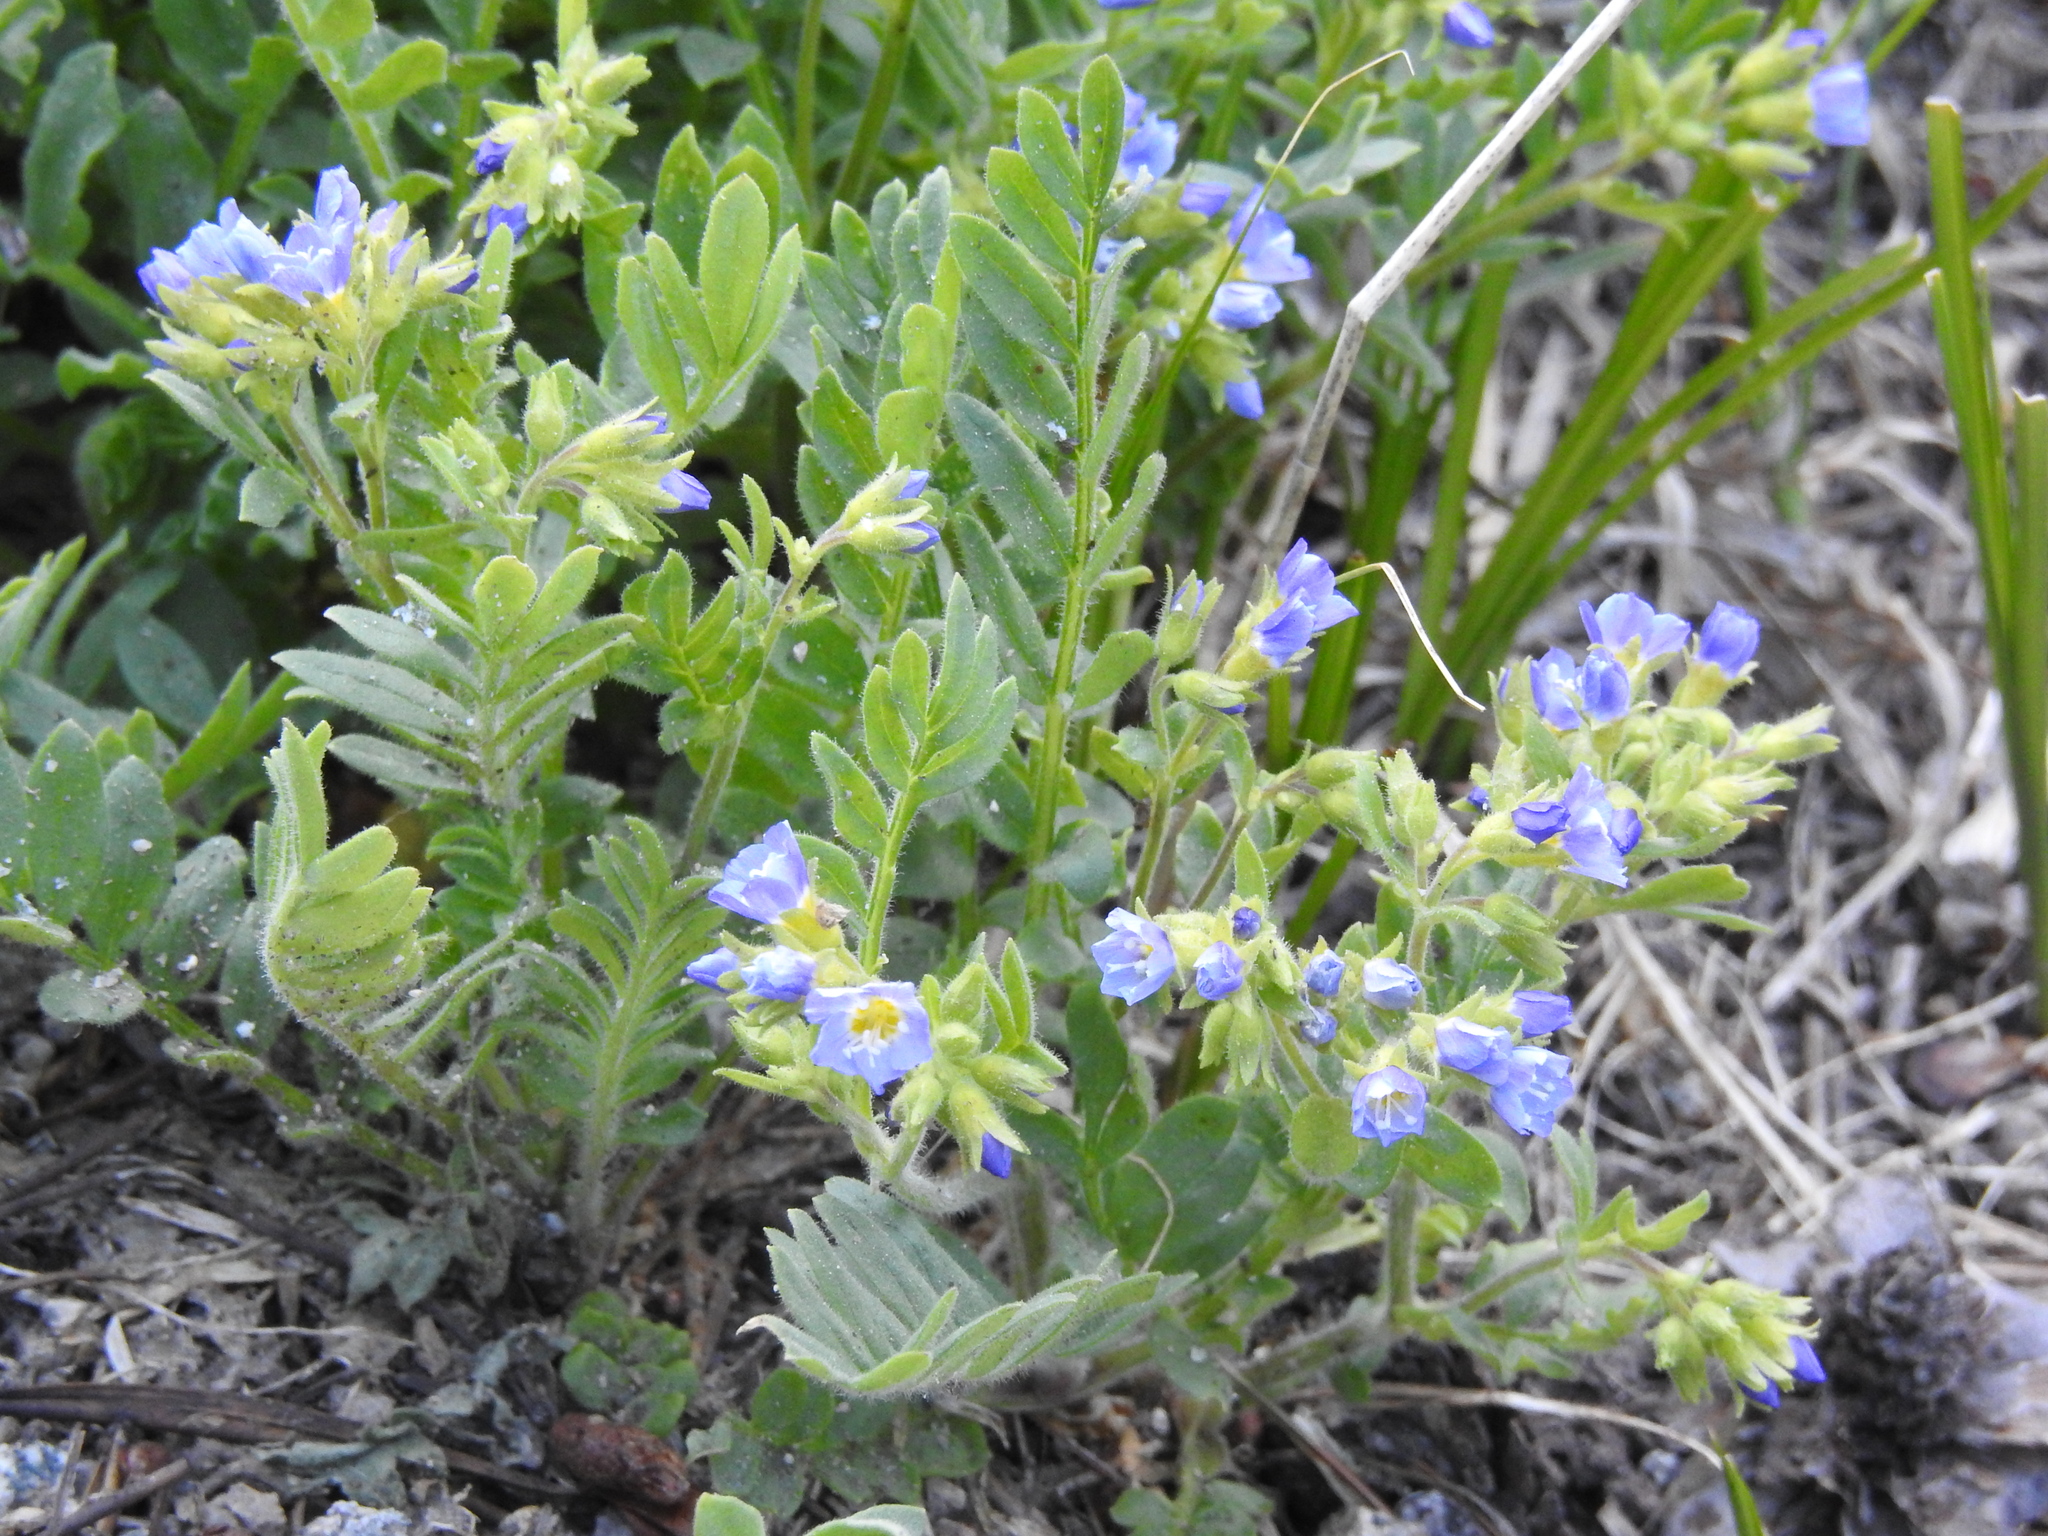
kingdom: Plantae
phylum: Tracheophyta
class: Magnoliopsida
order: Ericales
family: Polemoniaceae
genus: Polemonium
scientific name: Polemonium californicum
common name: California jacob's ladder
